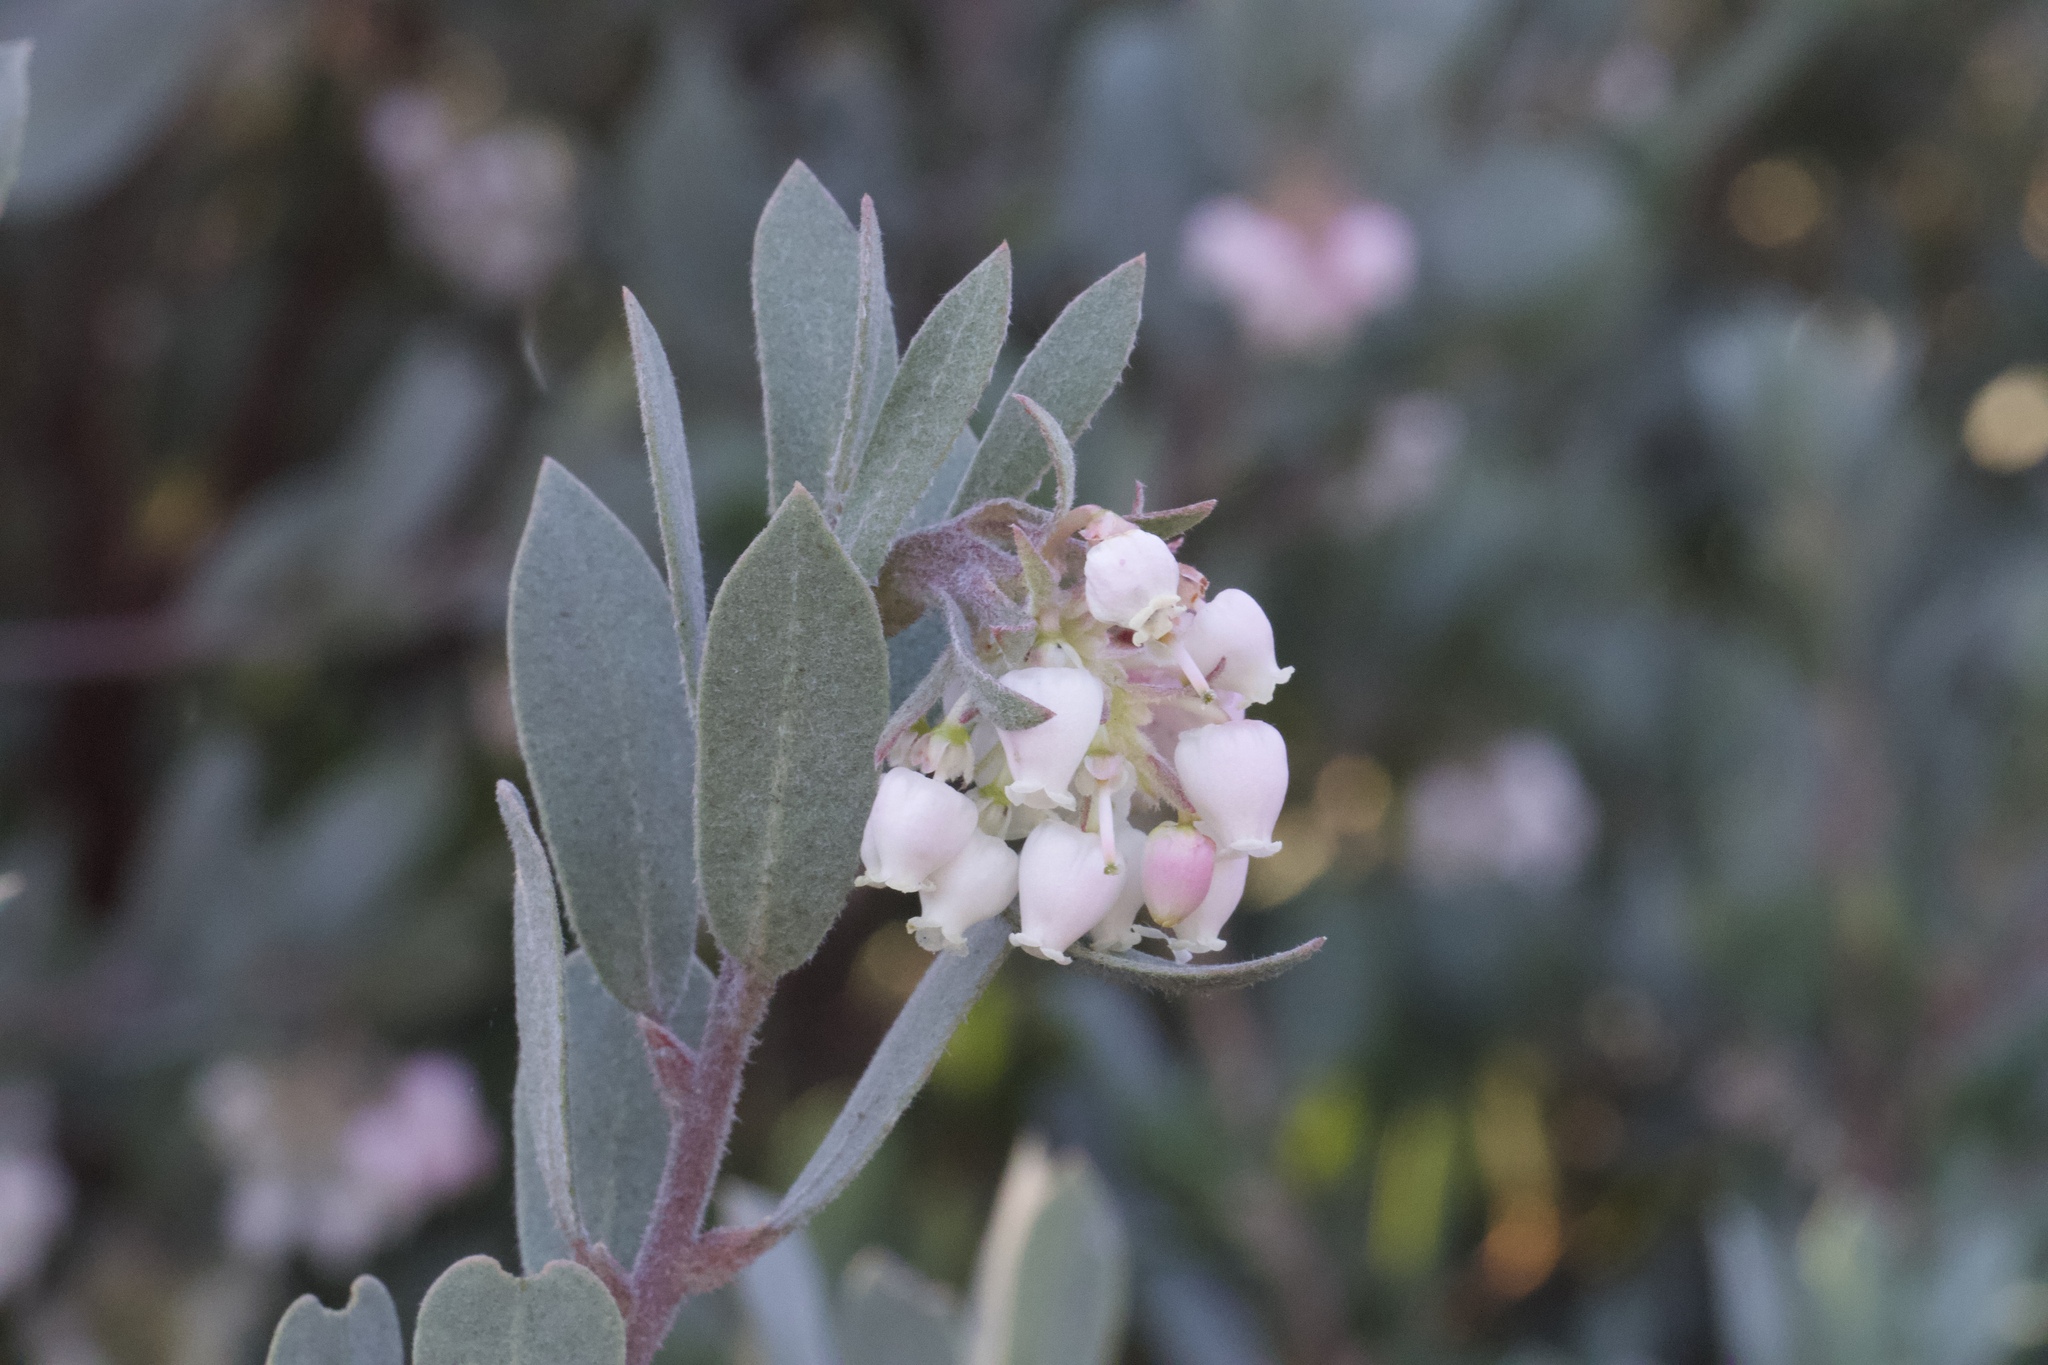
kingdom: Plantae
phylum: Tracheophyta
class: Magnoliopsida
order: Ericales
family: Ericaceae
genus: Arctostaphylos
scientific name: Arctostaphylos silvicola
